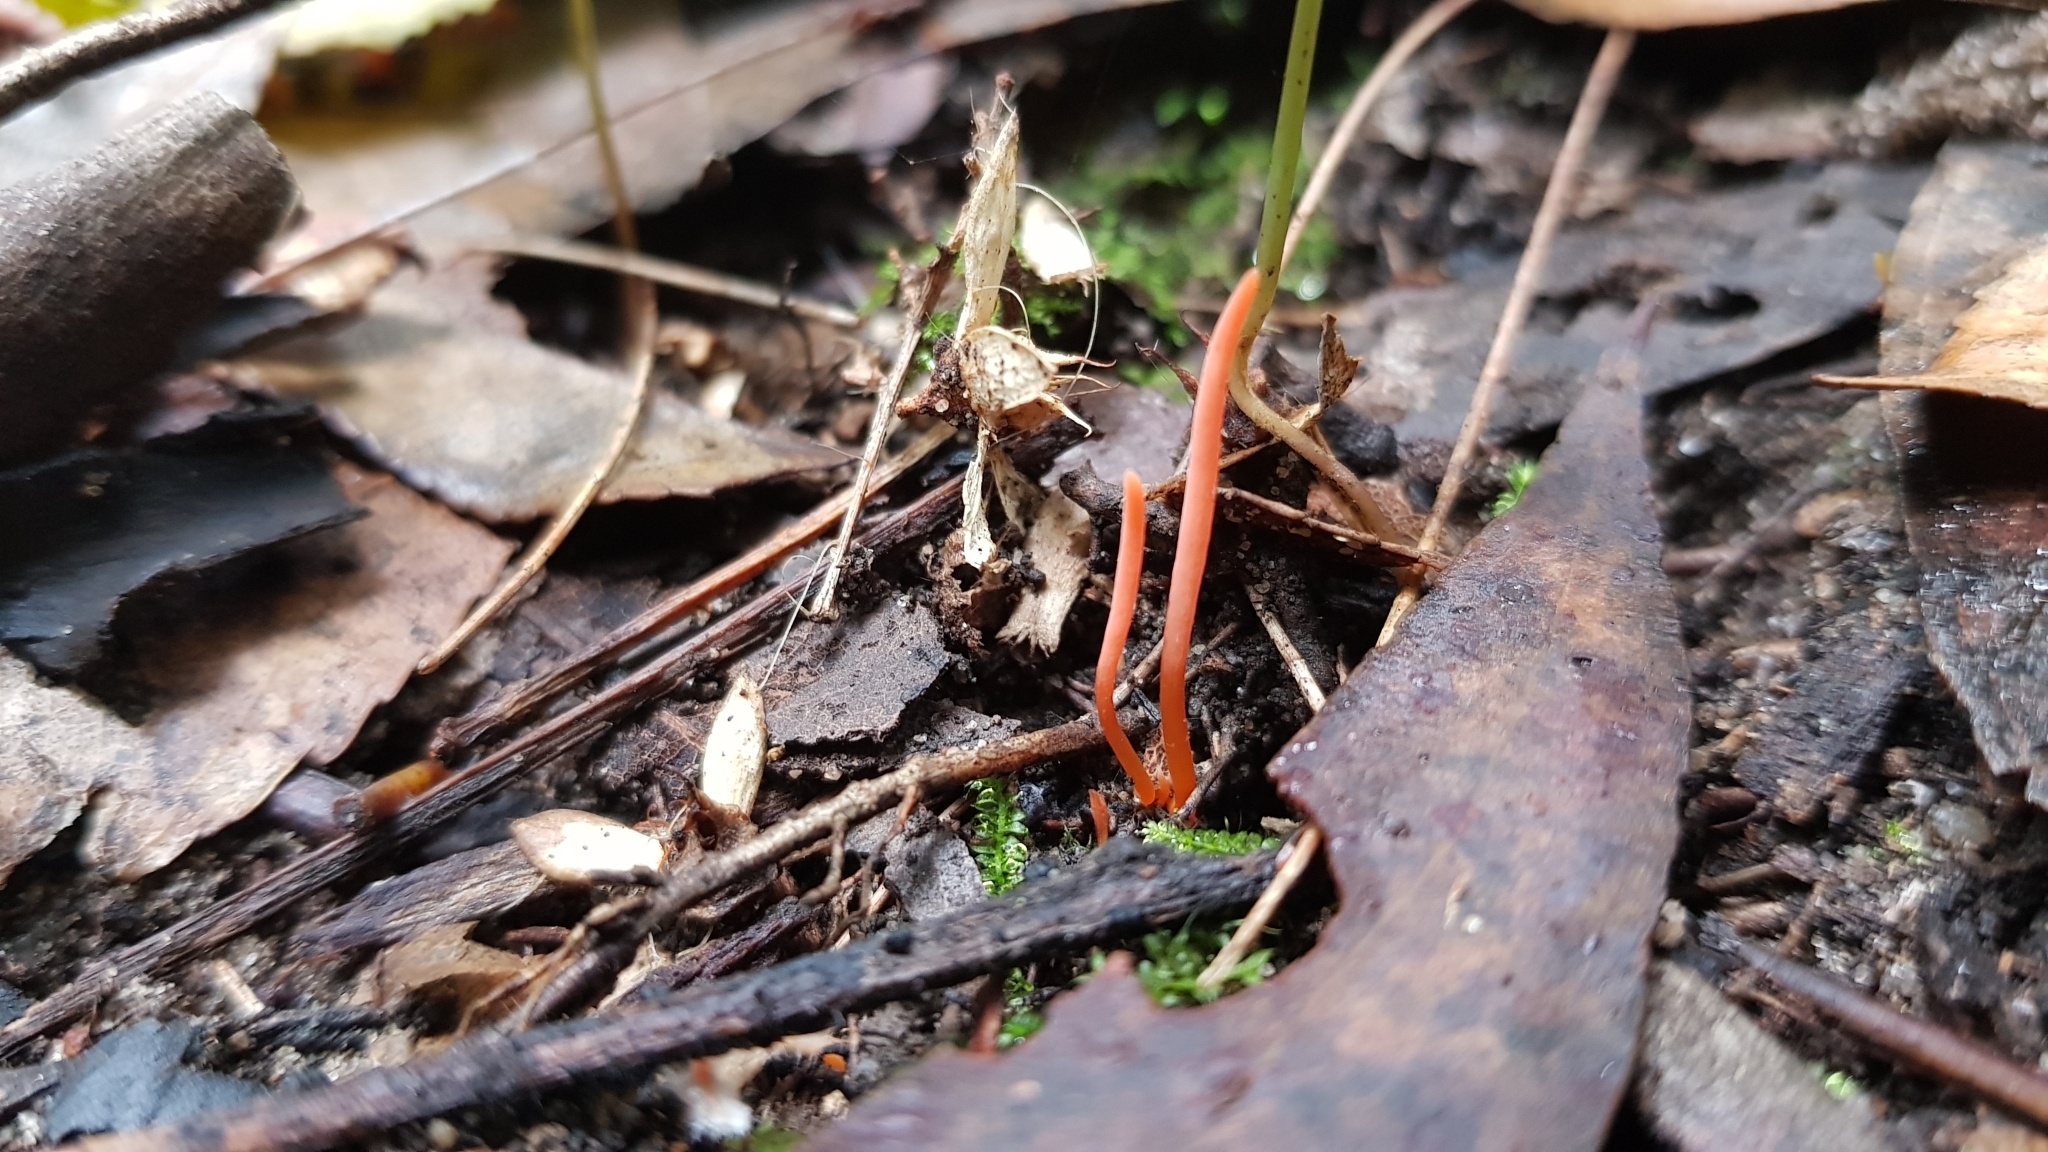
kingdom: Fungi
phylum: Basidiomycota
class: Agaricomycetes
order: Agaricales
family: Clavariaceae
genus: Clavulinopsis
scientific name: Clavulinopsis corallinorosacea
